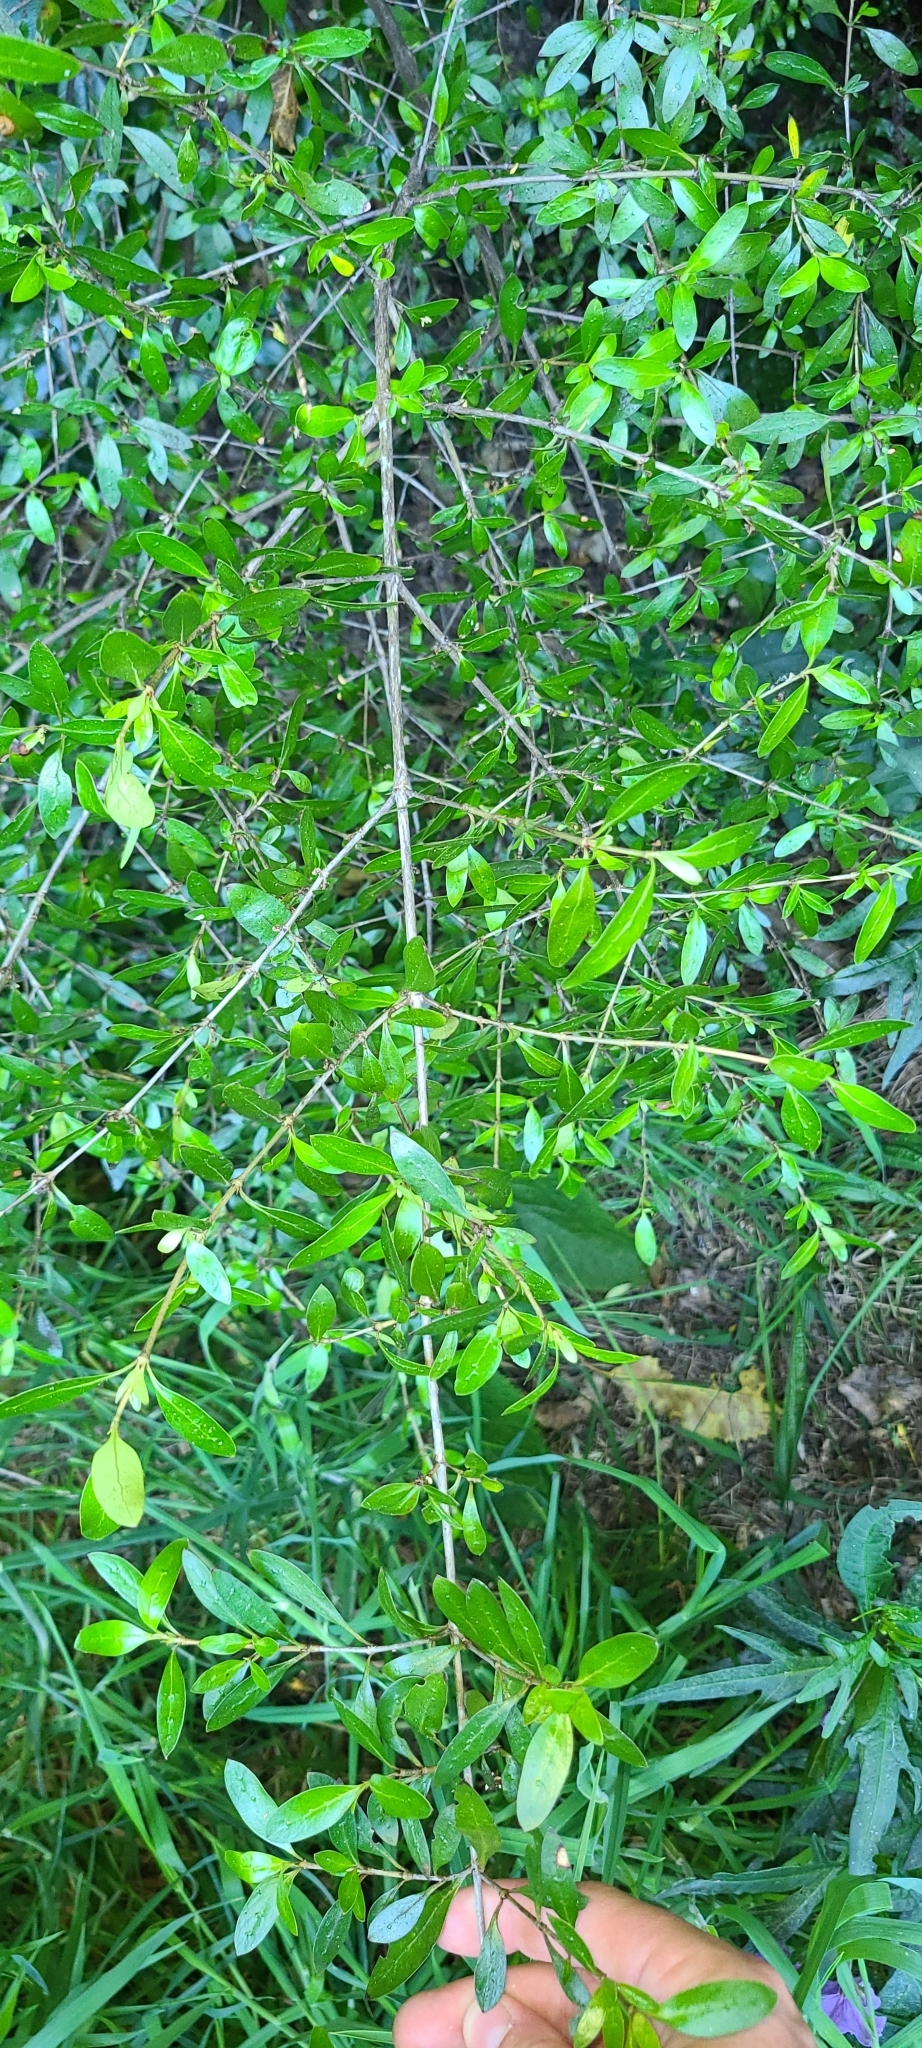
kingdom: Plantae
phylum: Tracheophyta
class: Magnoliopsida
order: Gentianales
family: Rubiaceae
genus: Coprosma
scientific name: Coprosma cunninghamii
